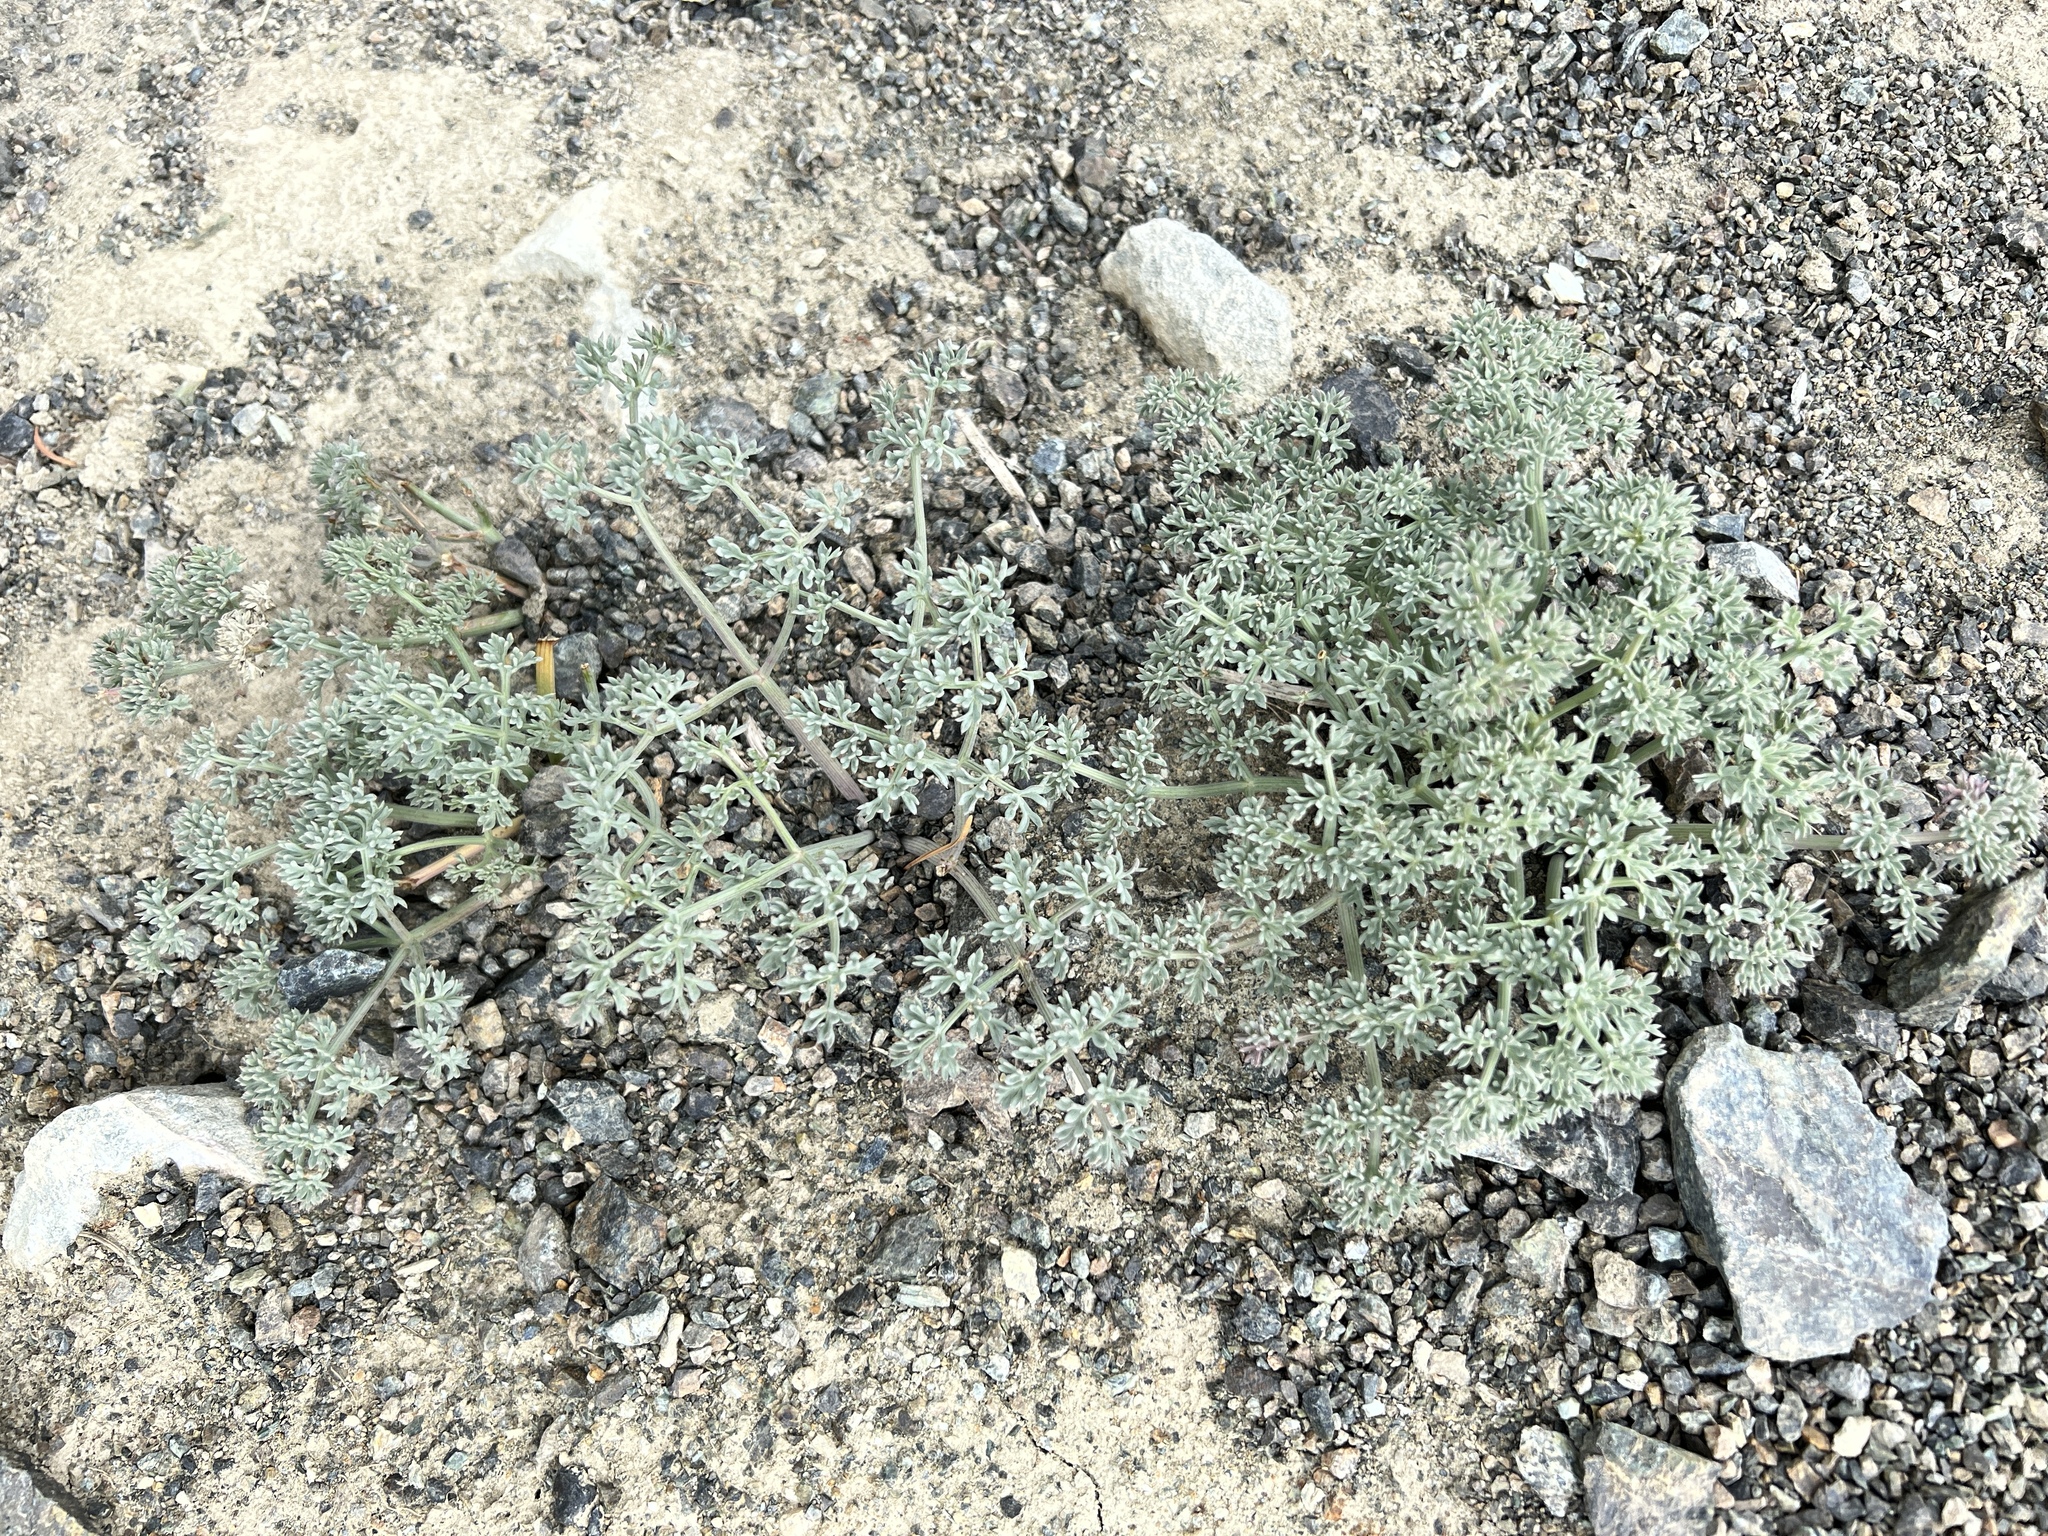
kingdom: Plantae
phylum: Tracheophyta
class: Magnoliopsida
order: Apiales
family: Apiaceae
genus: Lomatium
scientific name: Lomatium cuspidatum
